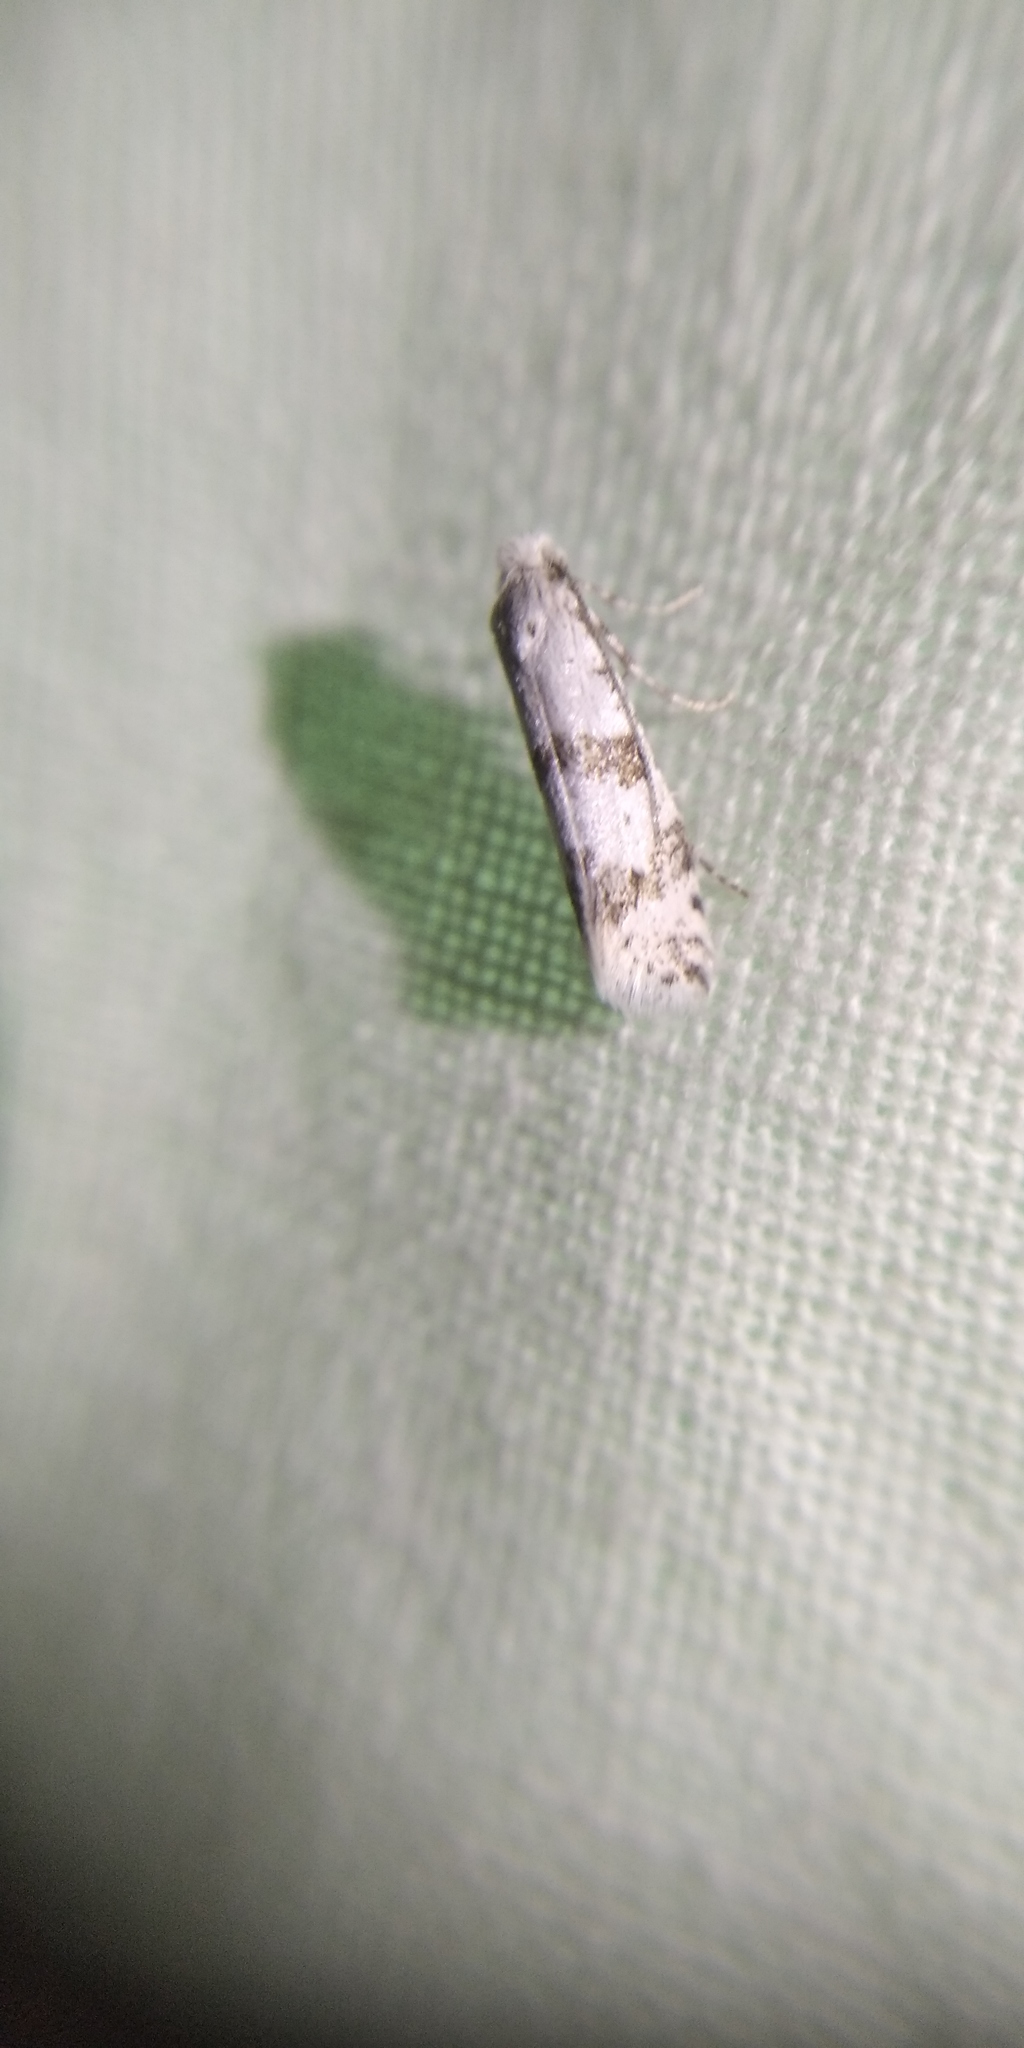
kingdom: Animalia
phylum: Arthropoda
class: Insecta
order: Lepidoptera
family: Yponomeutidae
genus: Scythropia
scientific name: Scythropia crataegella
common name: Hawthorn moth
